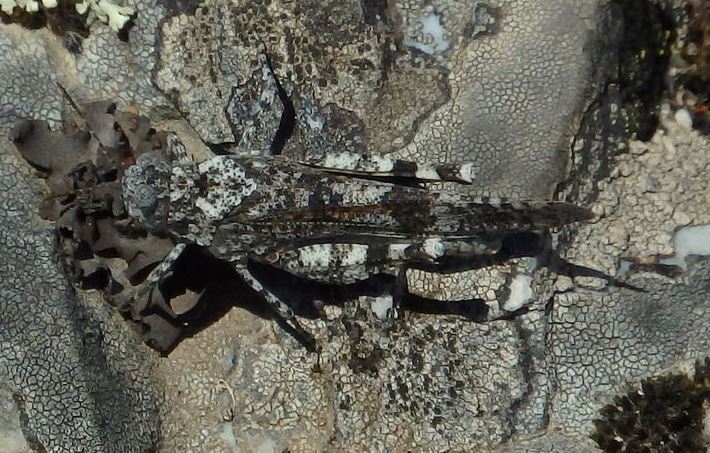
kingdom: Animalia
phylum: Arthropoda
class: Insecta
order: Orthoptera
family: Acrididae
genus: Oedipoda
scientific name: Oedipoda
